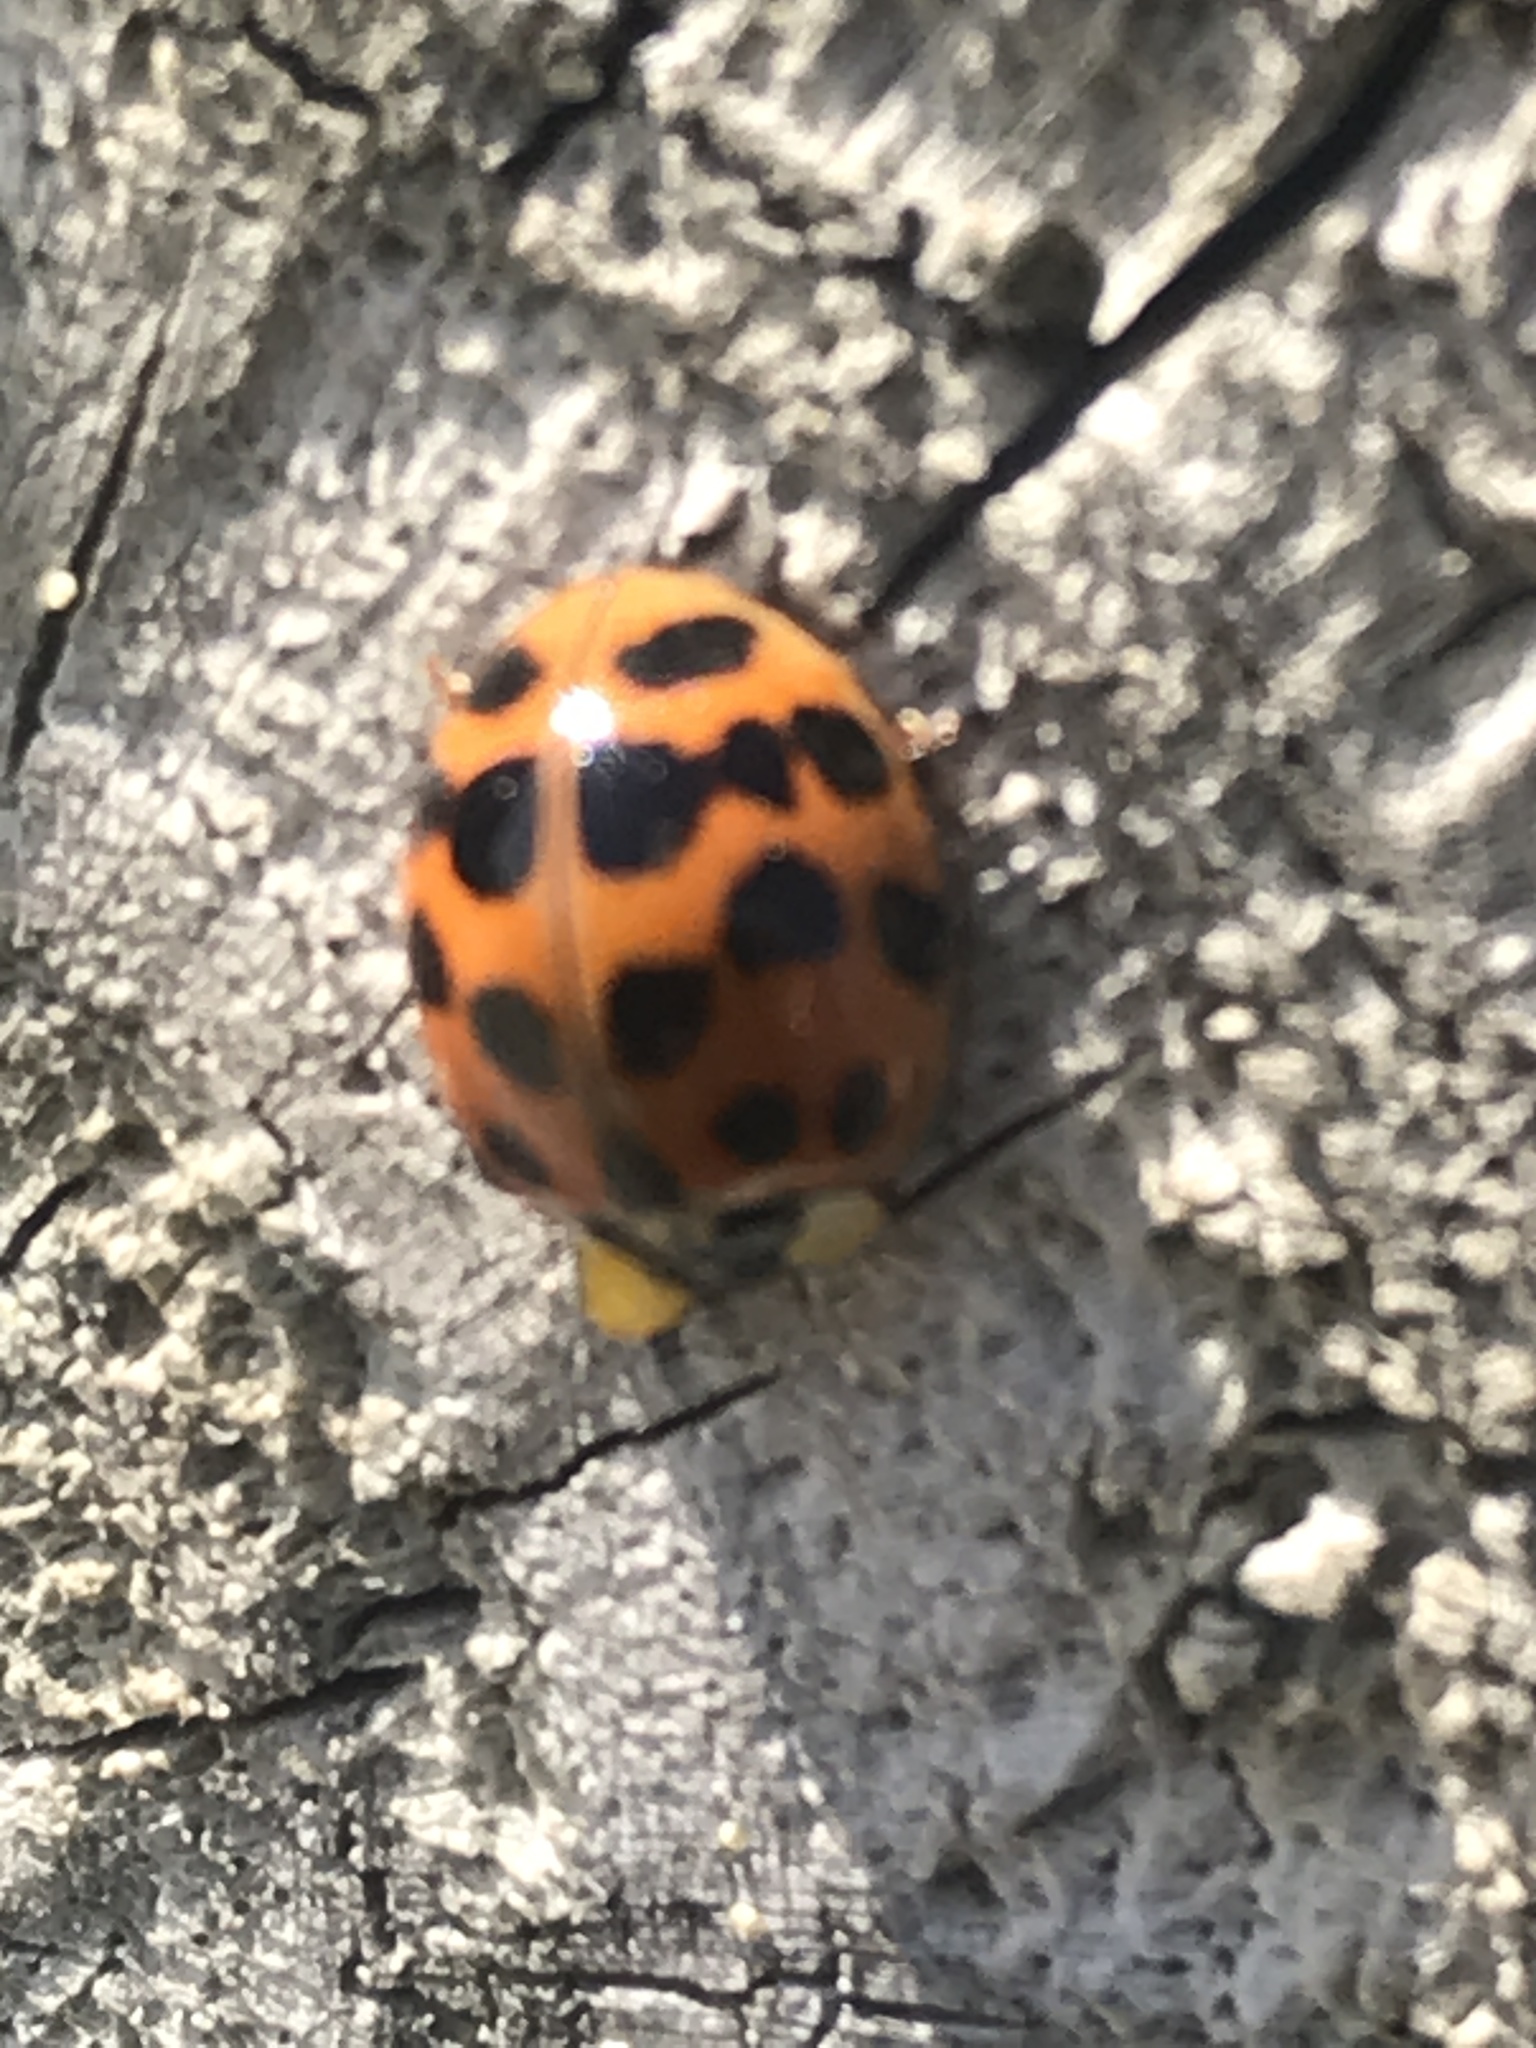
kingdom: Animalia
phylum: Arthropoda
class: Insecta
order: Coleoptera
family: Coccinellidae
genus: Harmonia
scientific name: Harmonia axyridis
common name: Harlequin ladybird
